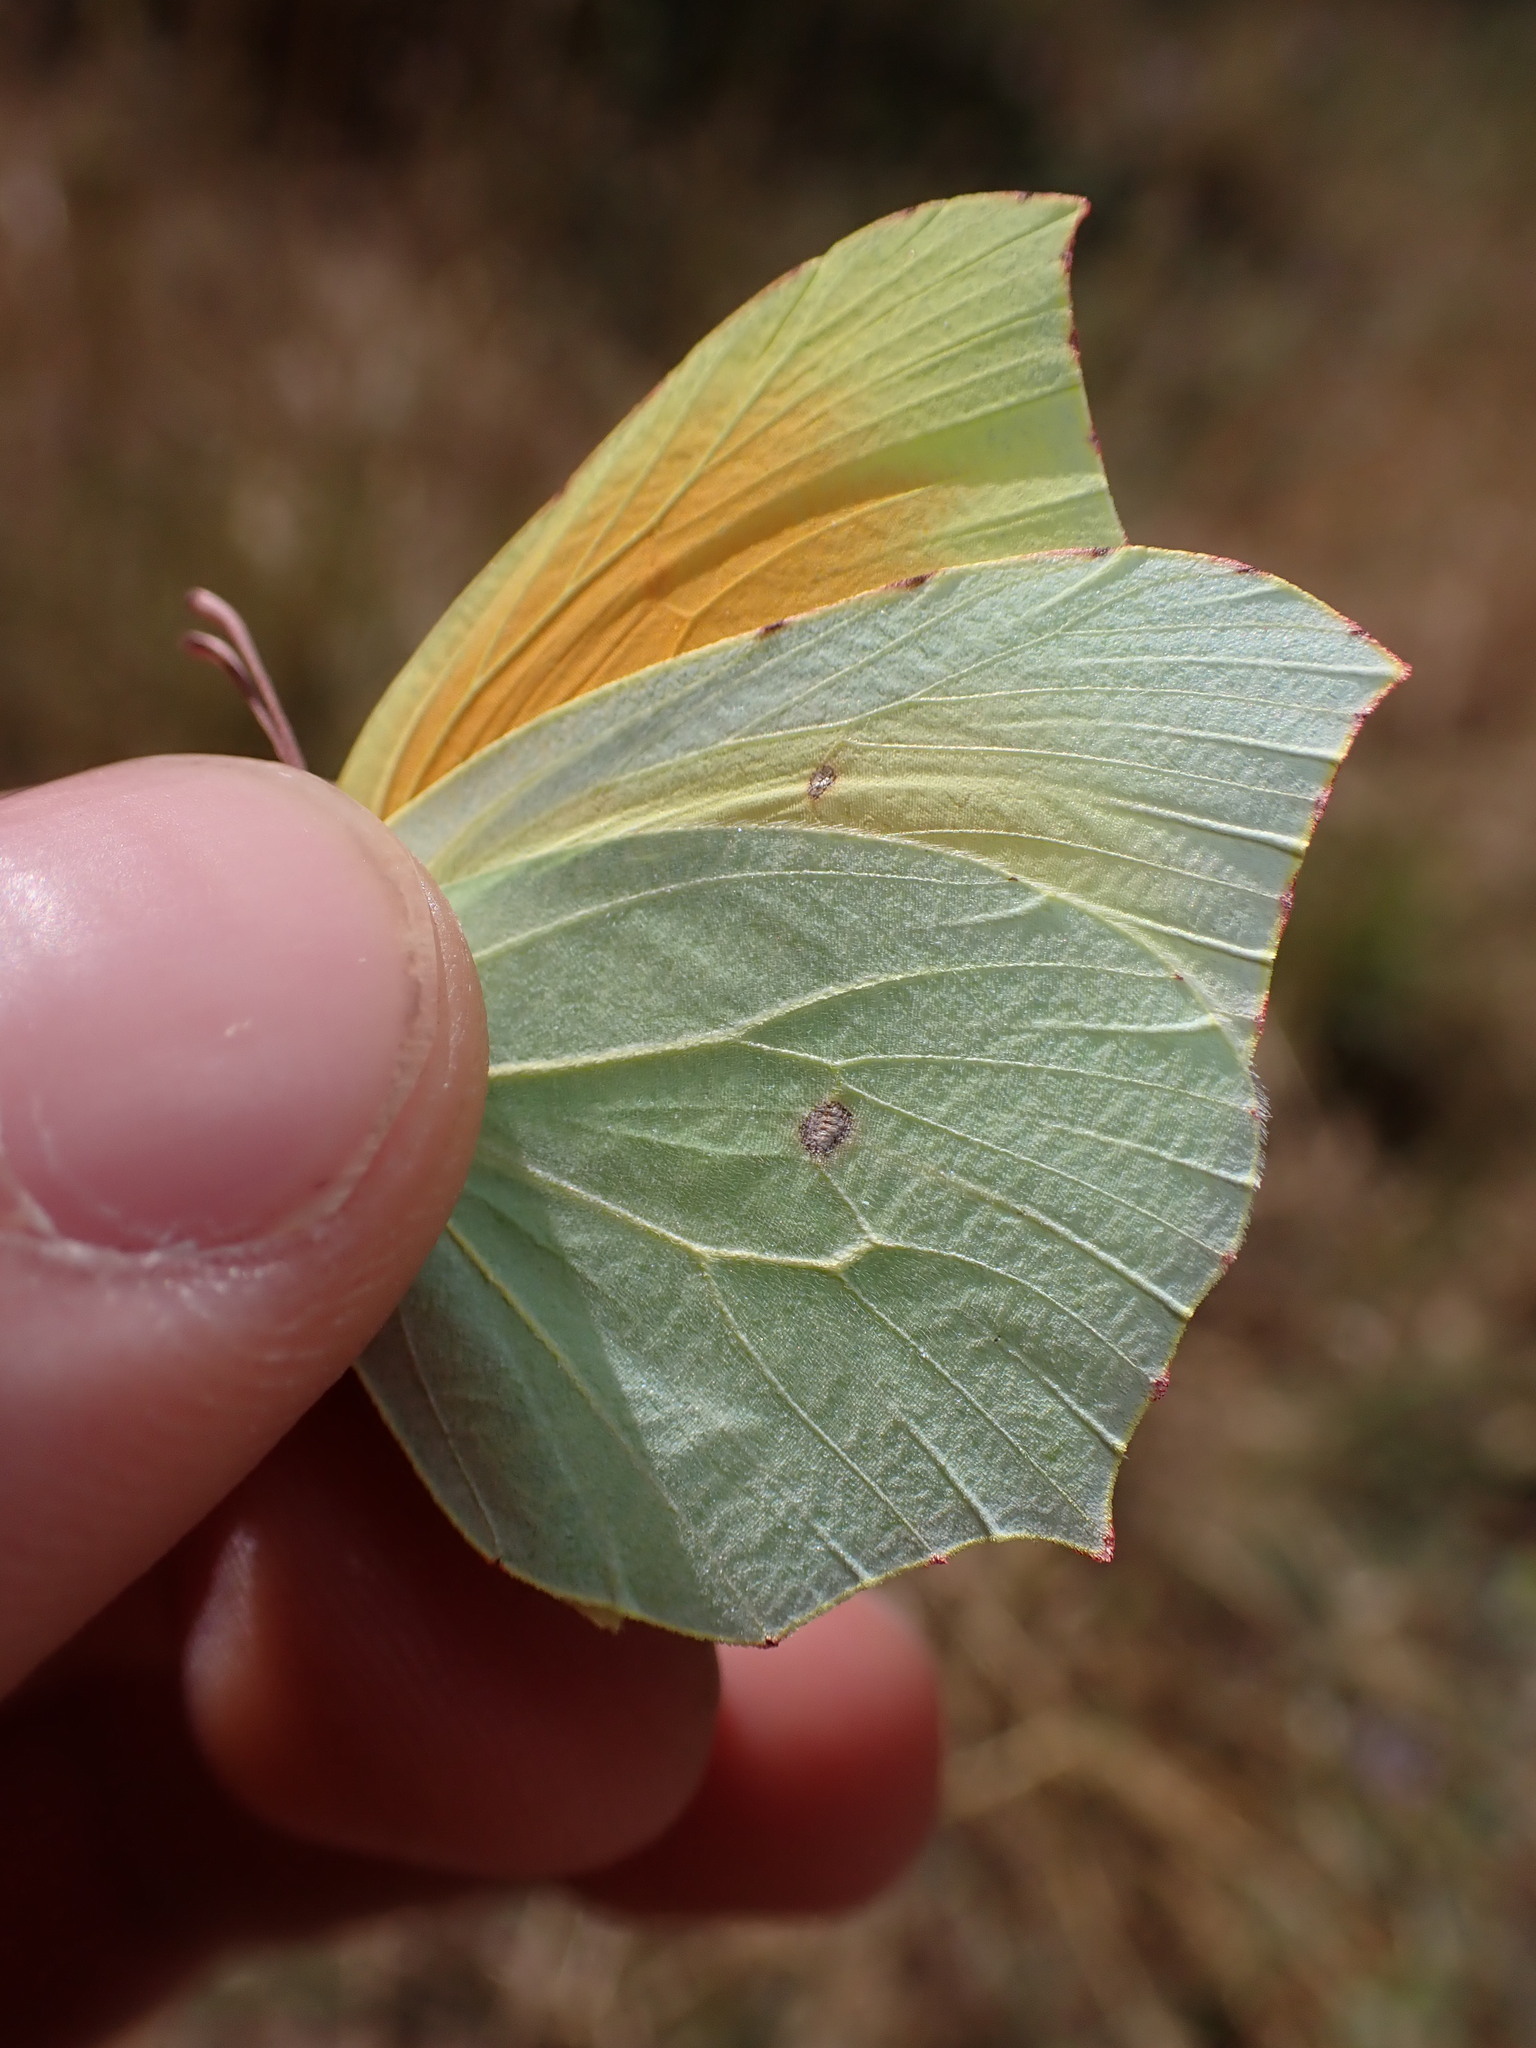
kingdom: Animalia
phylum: Arthropoda
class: Insecta
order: Lepidoptera
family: Pieridae
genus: Gonepteryx
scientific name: Gonepteryx cleopatra
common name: Cleopatra
